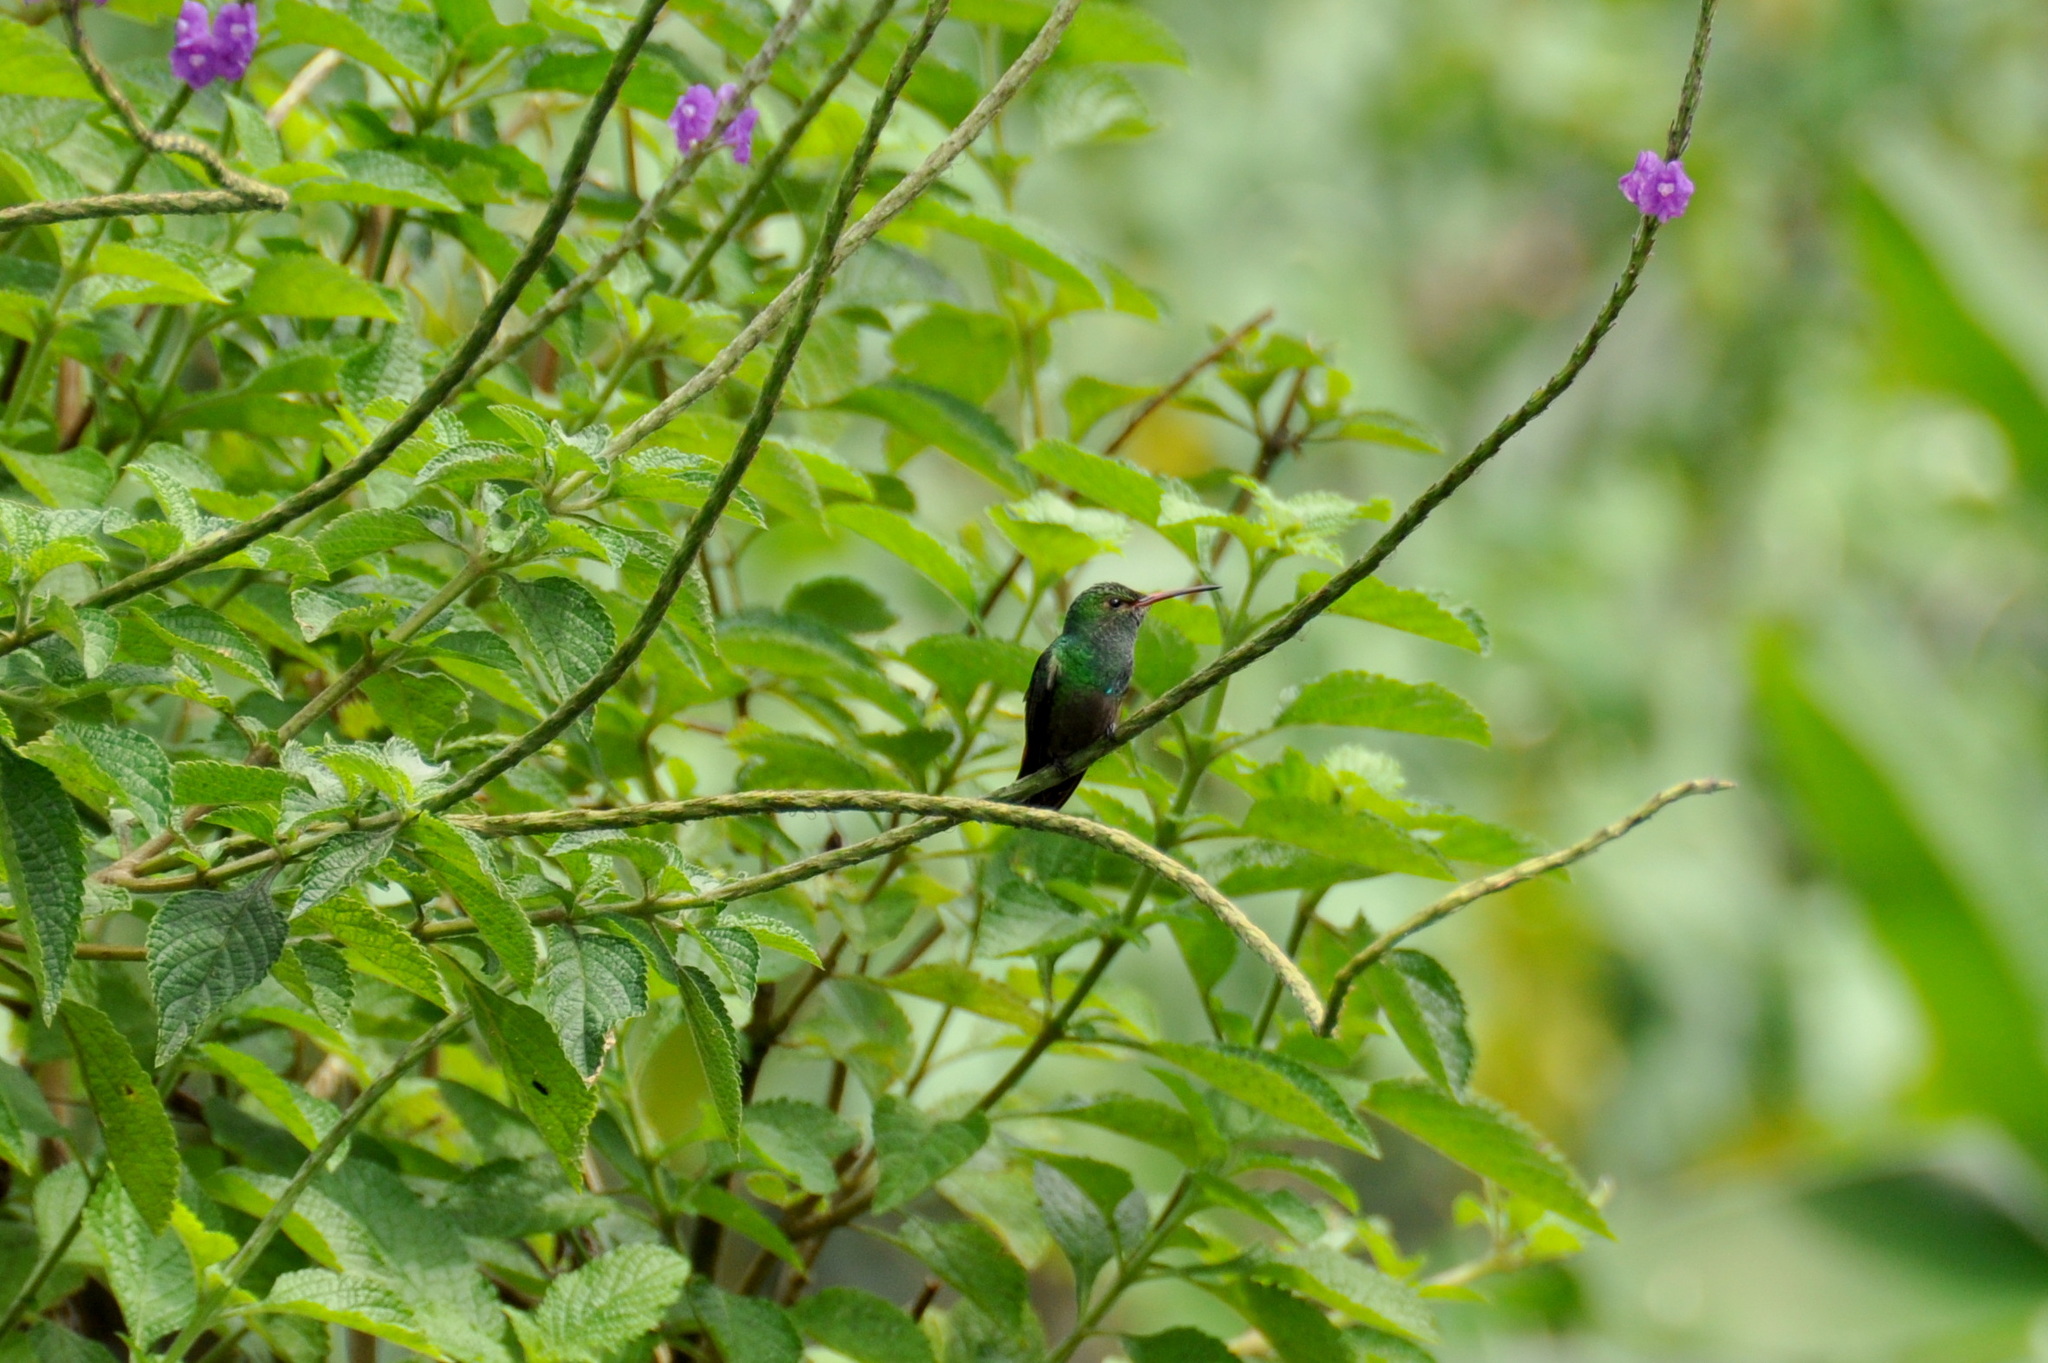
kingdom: Animalia
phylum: Chordata
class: Aves
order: Apodiformes
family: Trochilidae
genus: Amazilia
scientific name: Amazilia tzacatl
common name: Rufous-tailed hummingbird
